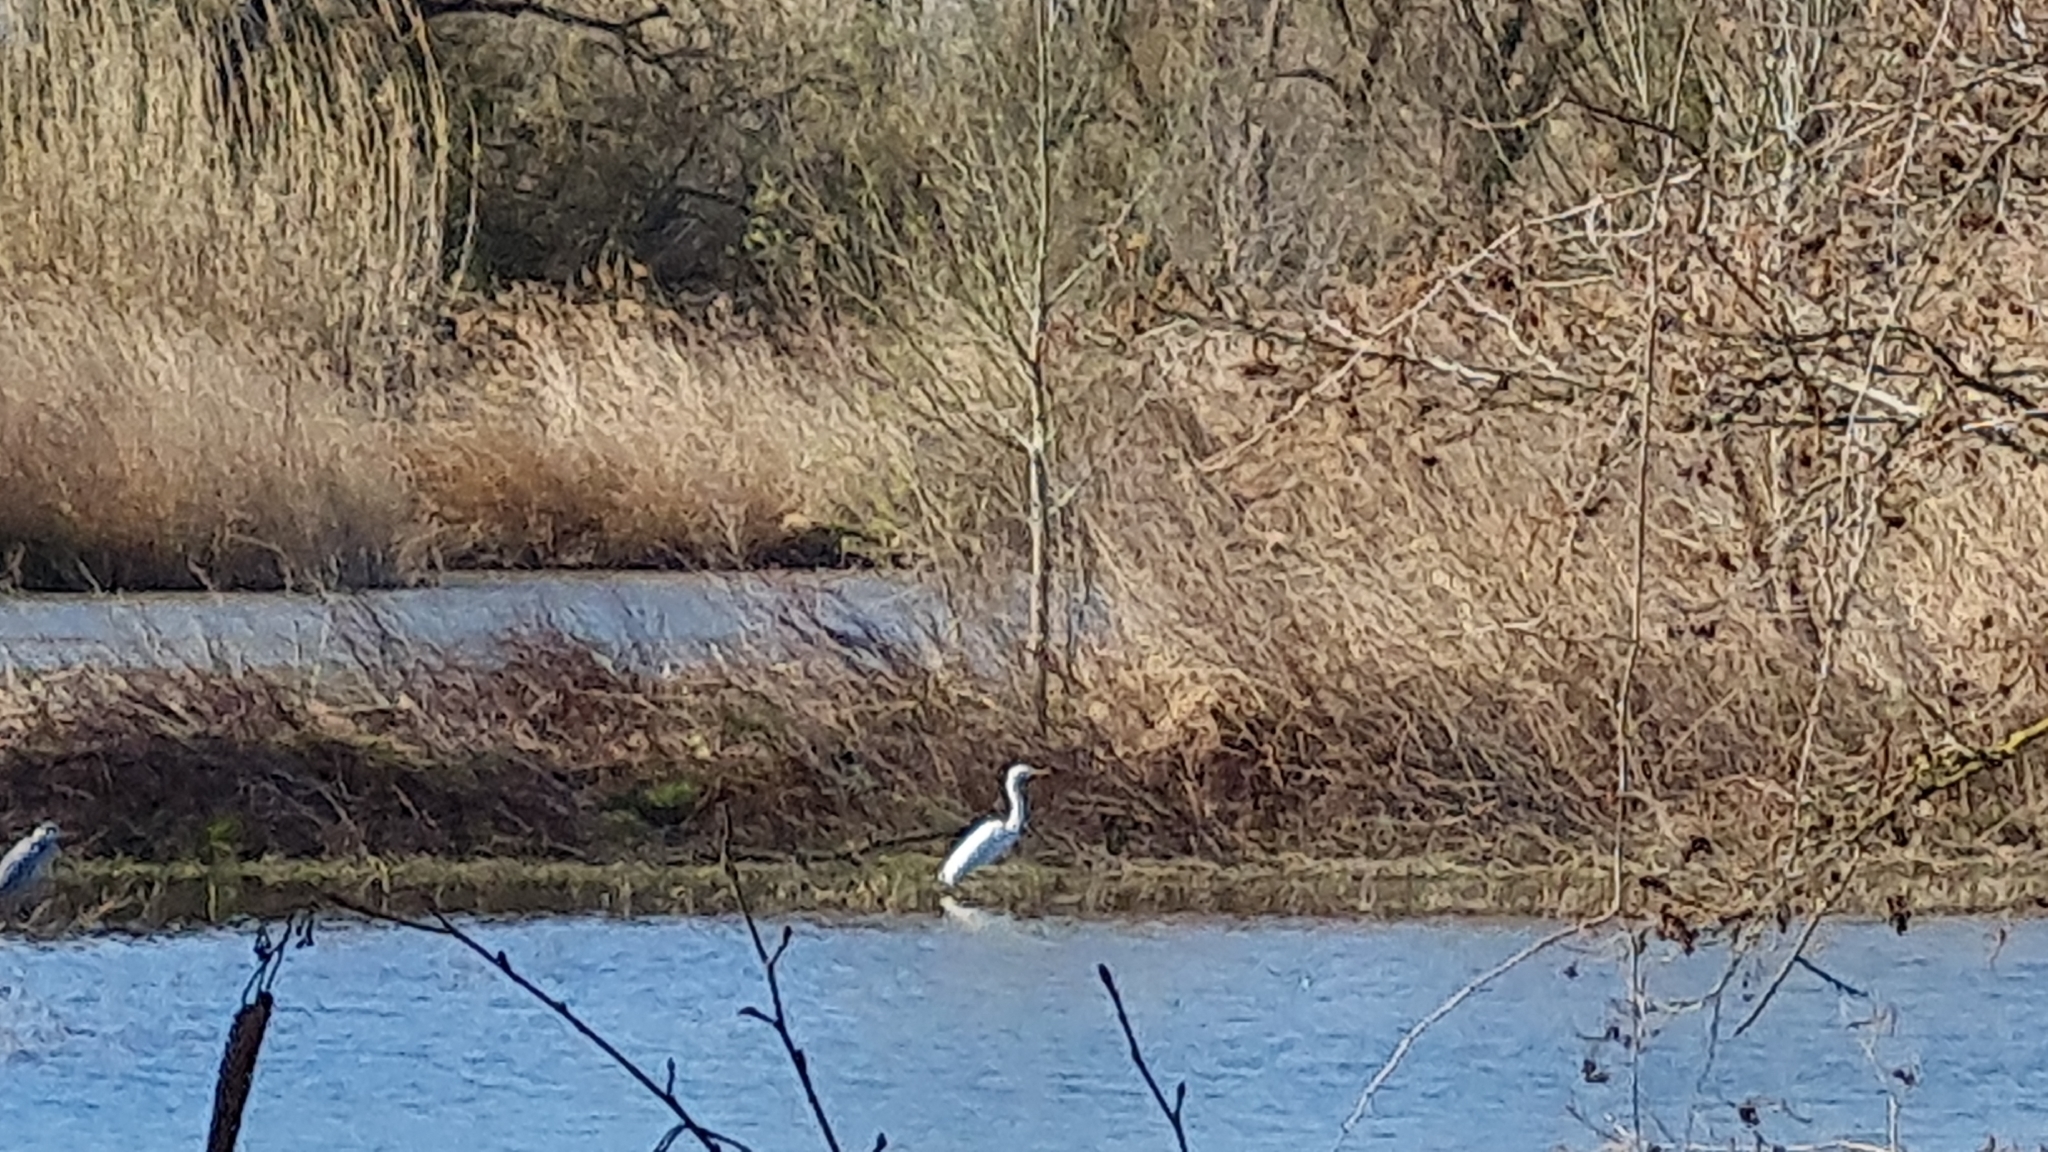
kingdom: Animalia
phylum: Chordata
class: Aves
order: Pelecaniformes
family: Ardeidae
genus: Ardea
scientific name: Ardea alba
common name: Great egret
